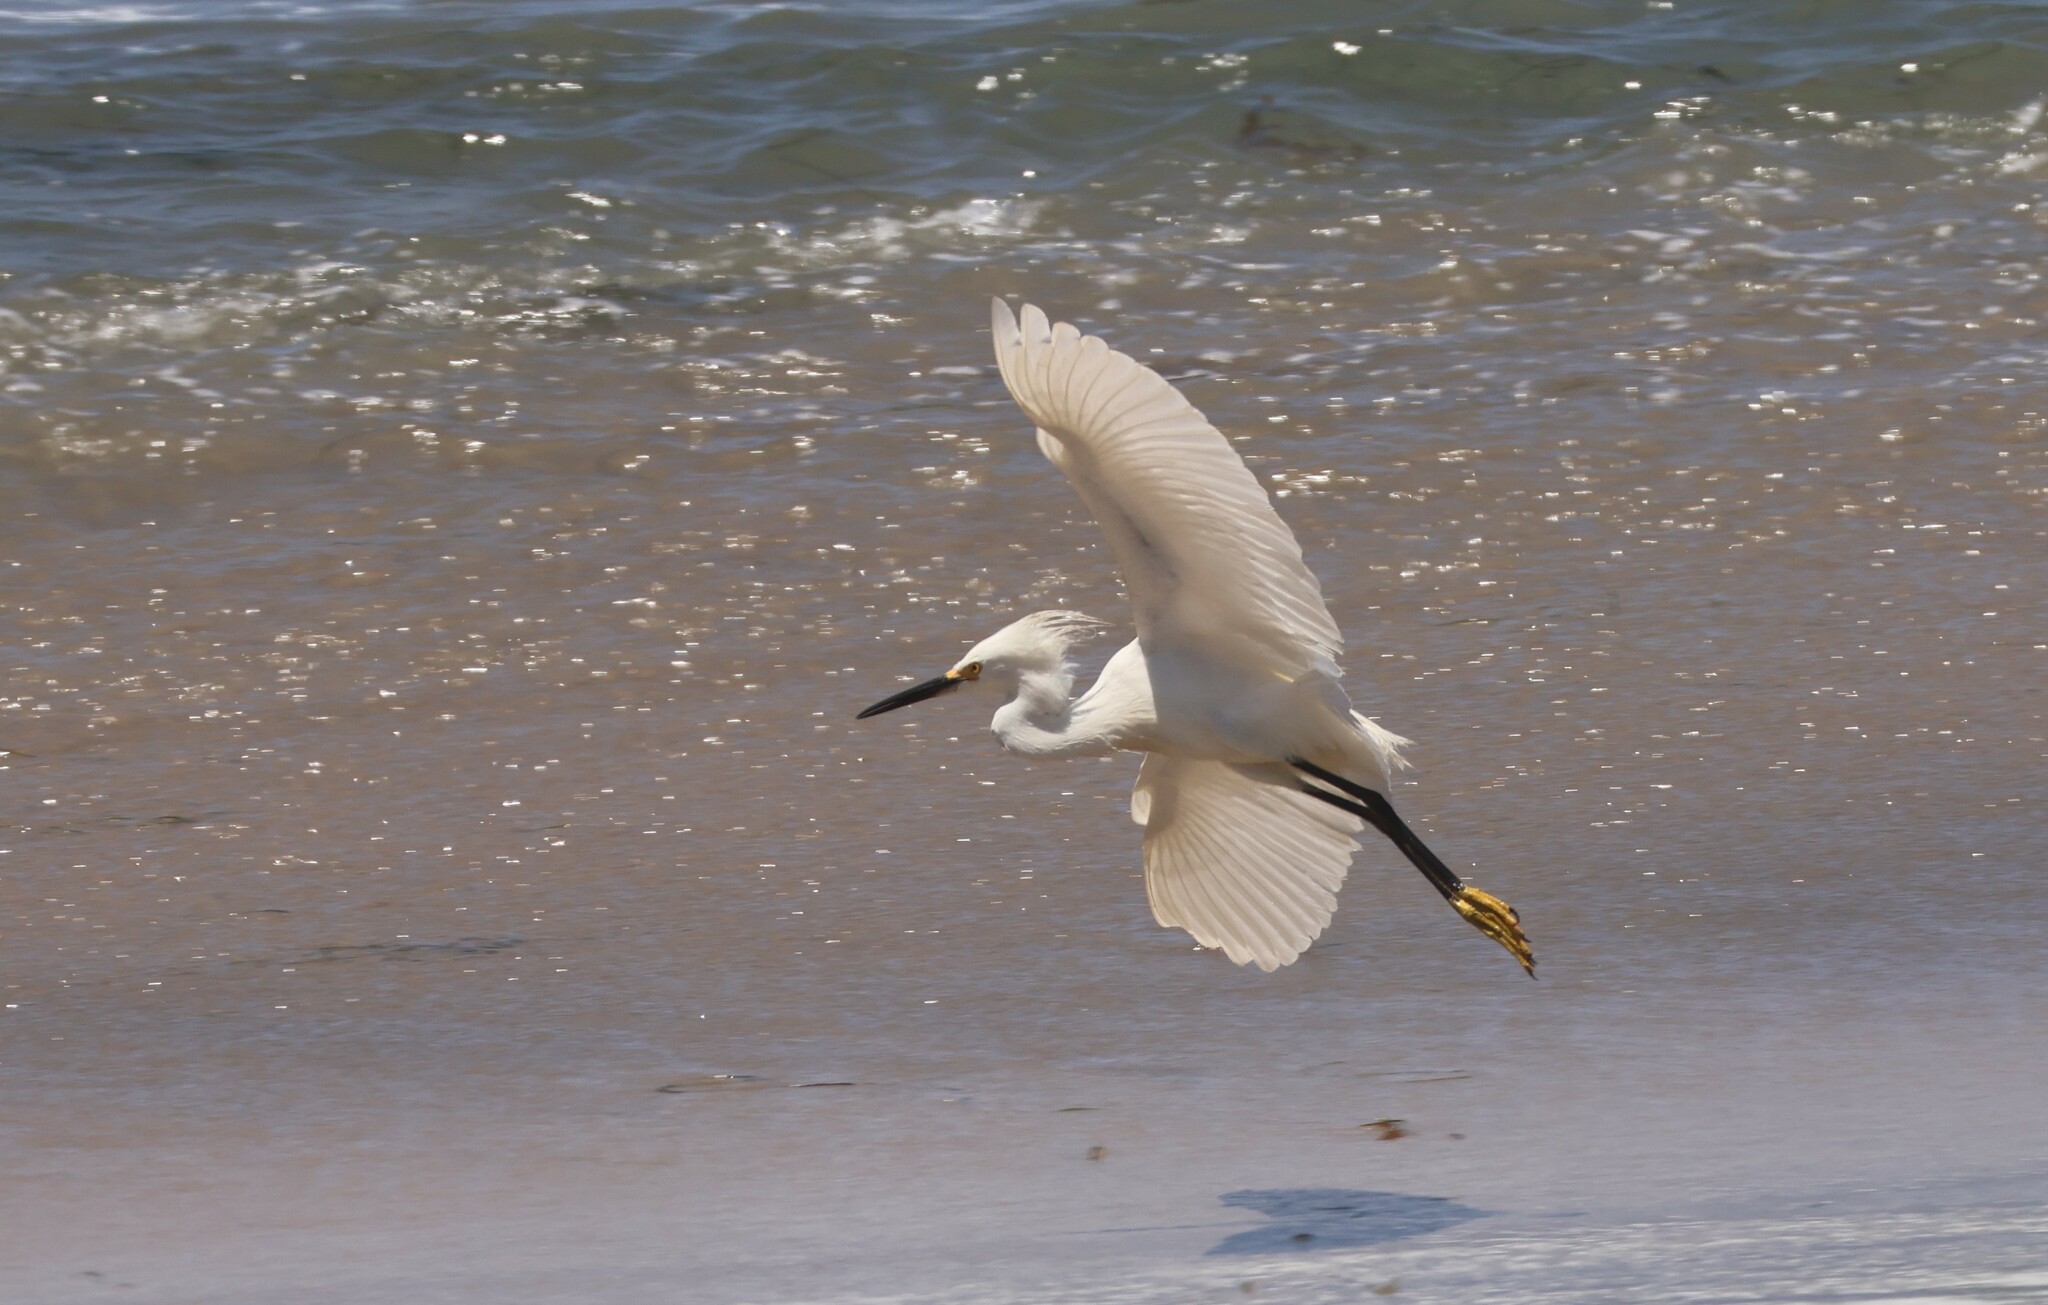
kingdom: Animalia
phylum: Chordata
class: Aves
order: Pelecaniformes
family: Ardeidae
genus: Egretta
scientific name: Egretta thula
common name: Snowy egret
